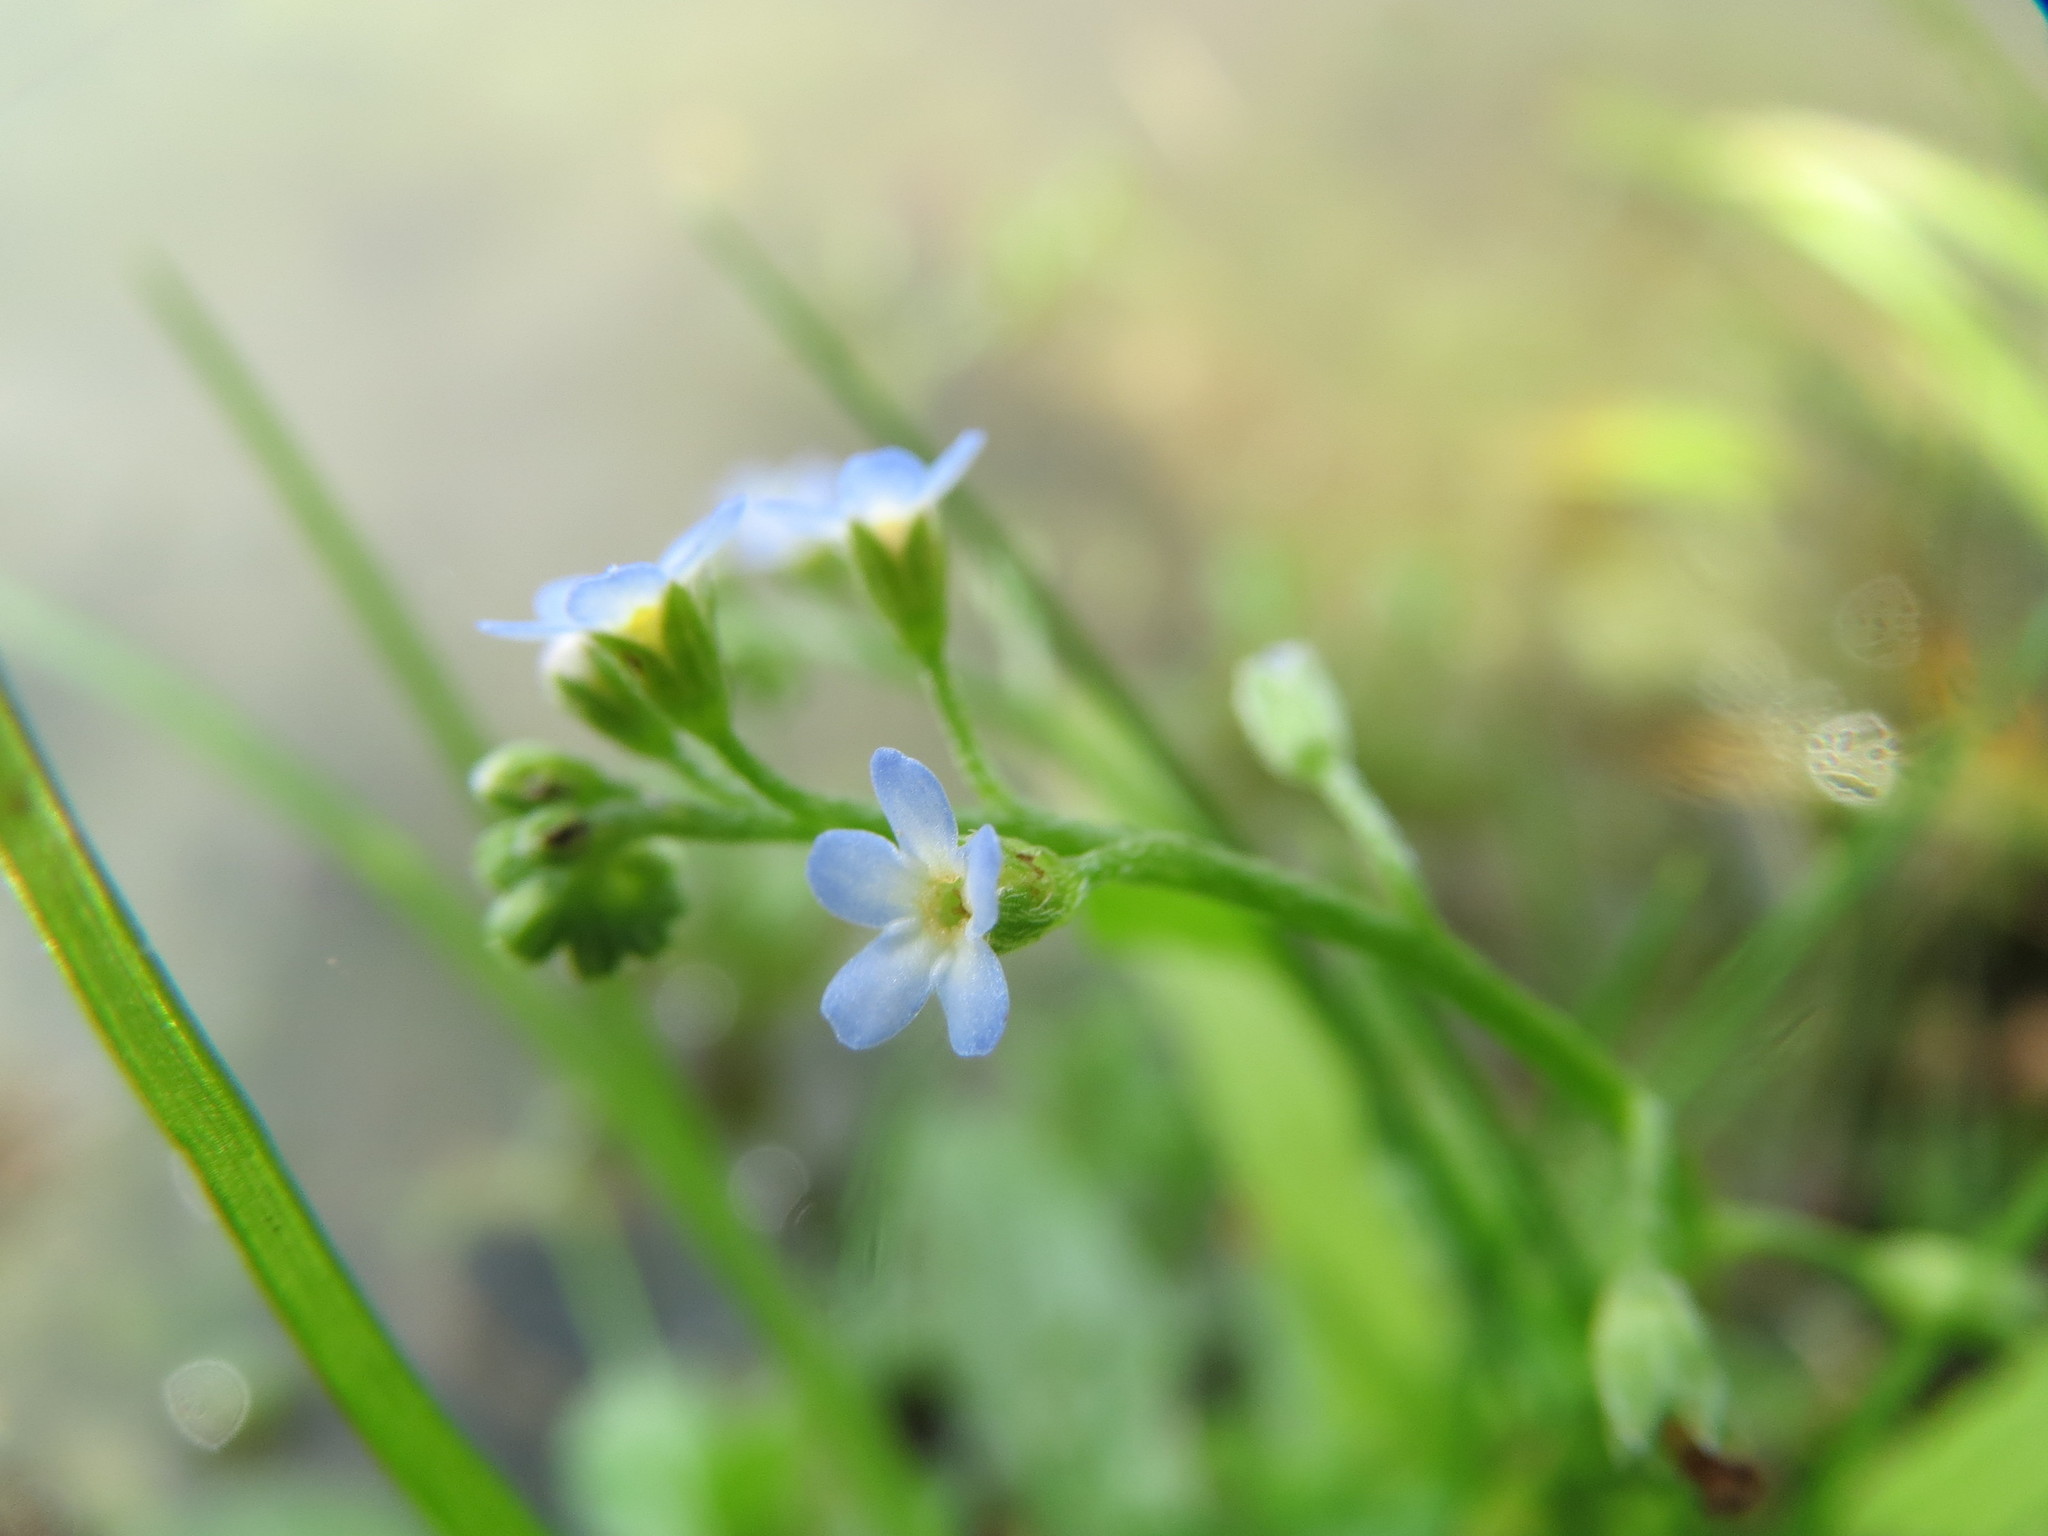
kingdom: Plantae
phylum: Tracheophyta
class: Magnoliopsida
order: Boraginales
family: Boraginaceae
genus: Myosotis
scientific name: Myosotis scorpioides
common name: Water forget-me-not
